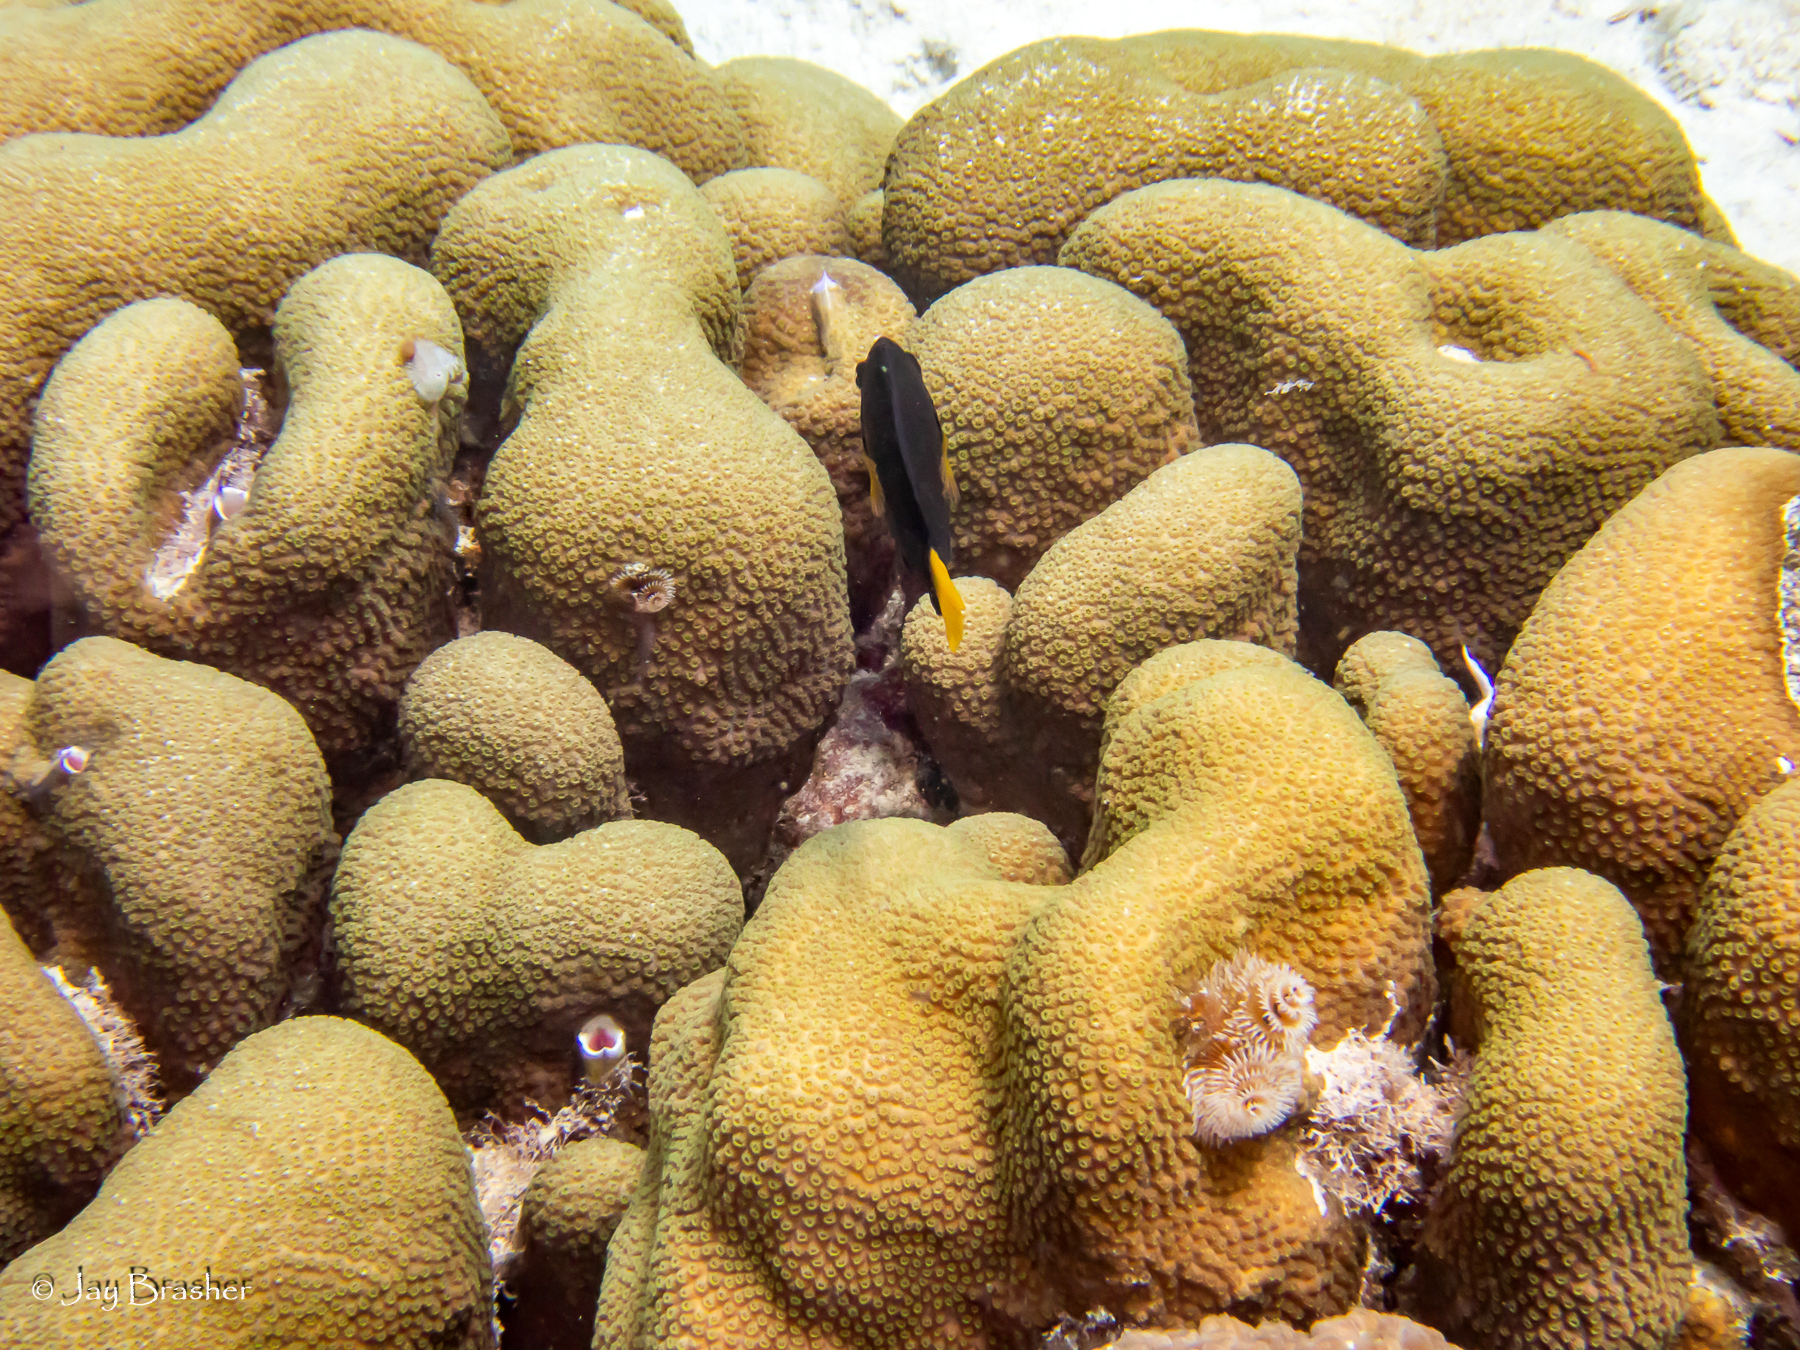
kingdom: Animalia
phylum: Annelida
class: Polychaeta
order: Sabellida
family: Serpulidae
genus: Spirobranchus
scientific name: Spirobranchus giganteus
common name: Christmas tree worm
